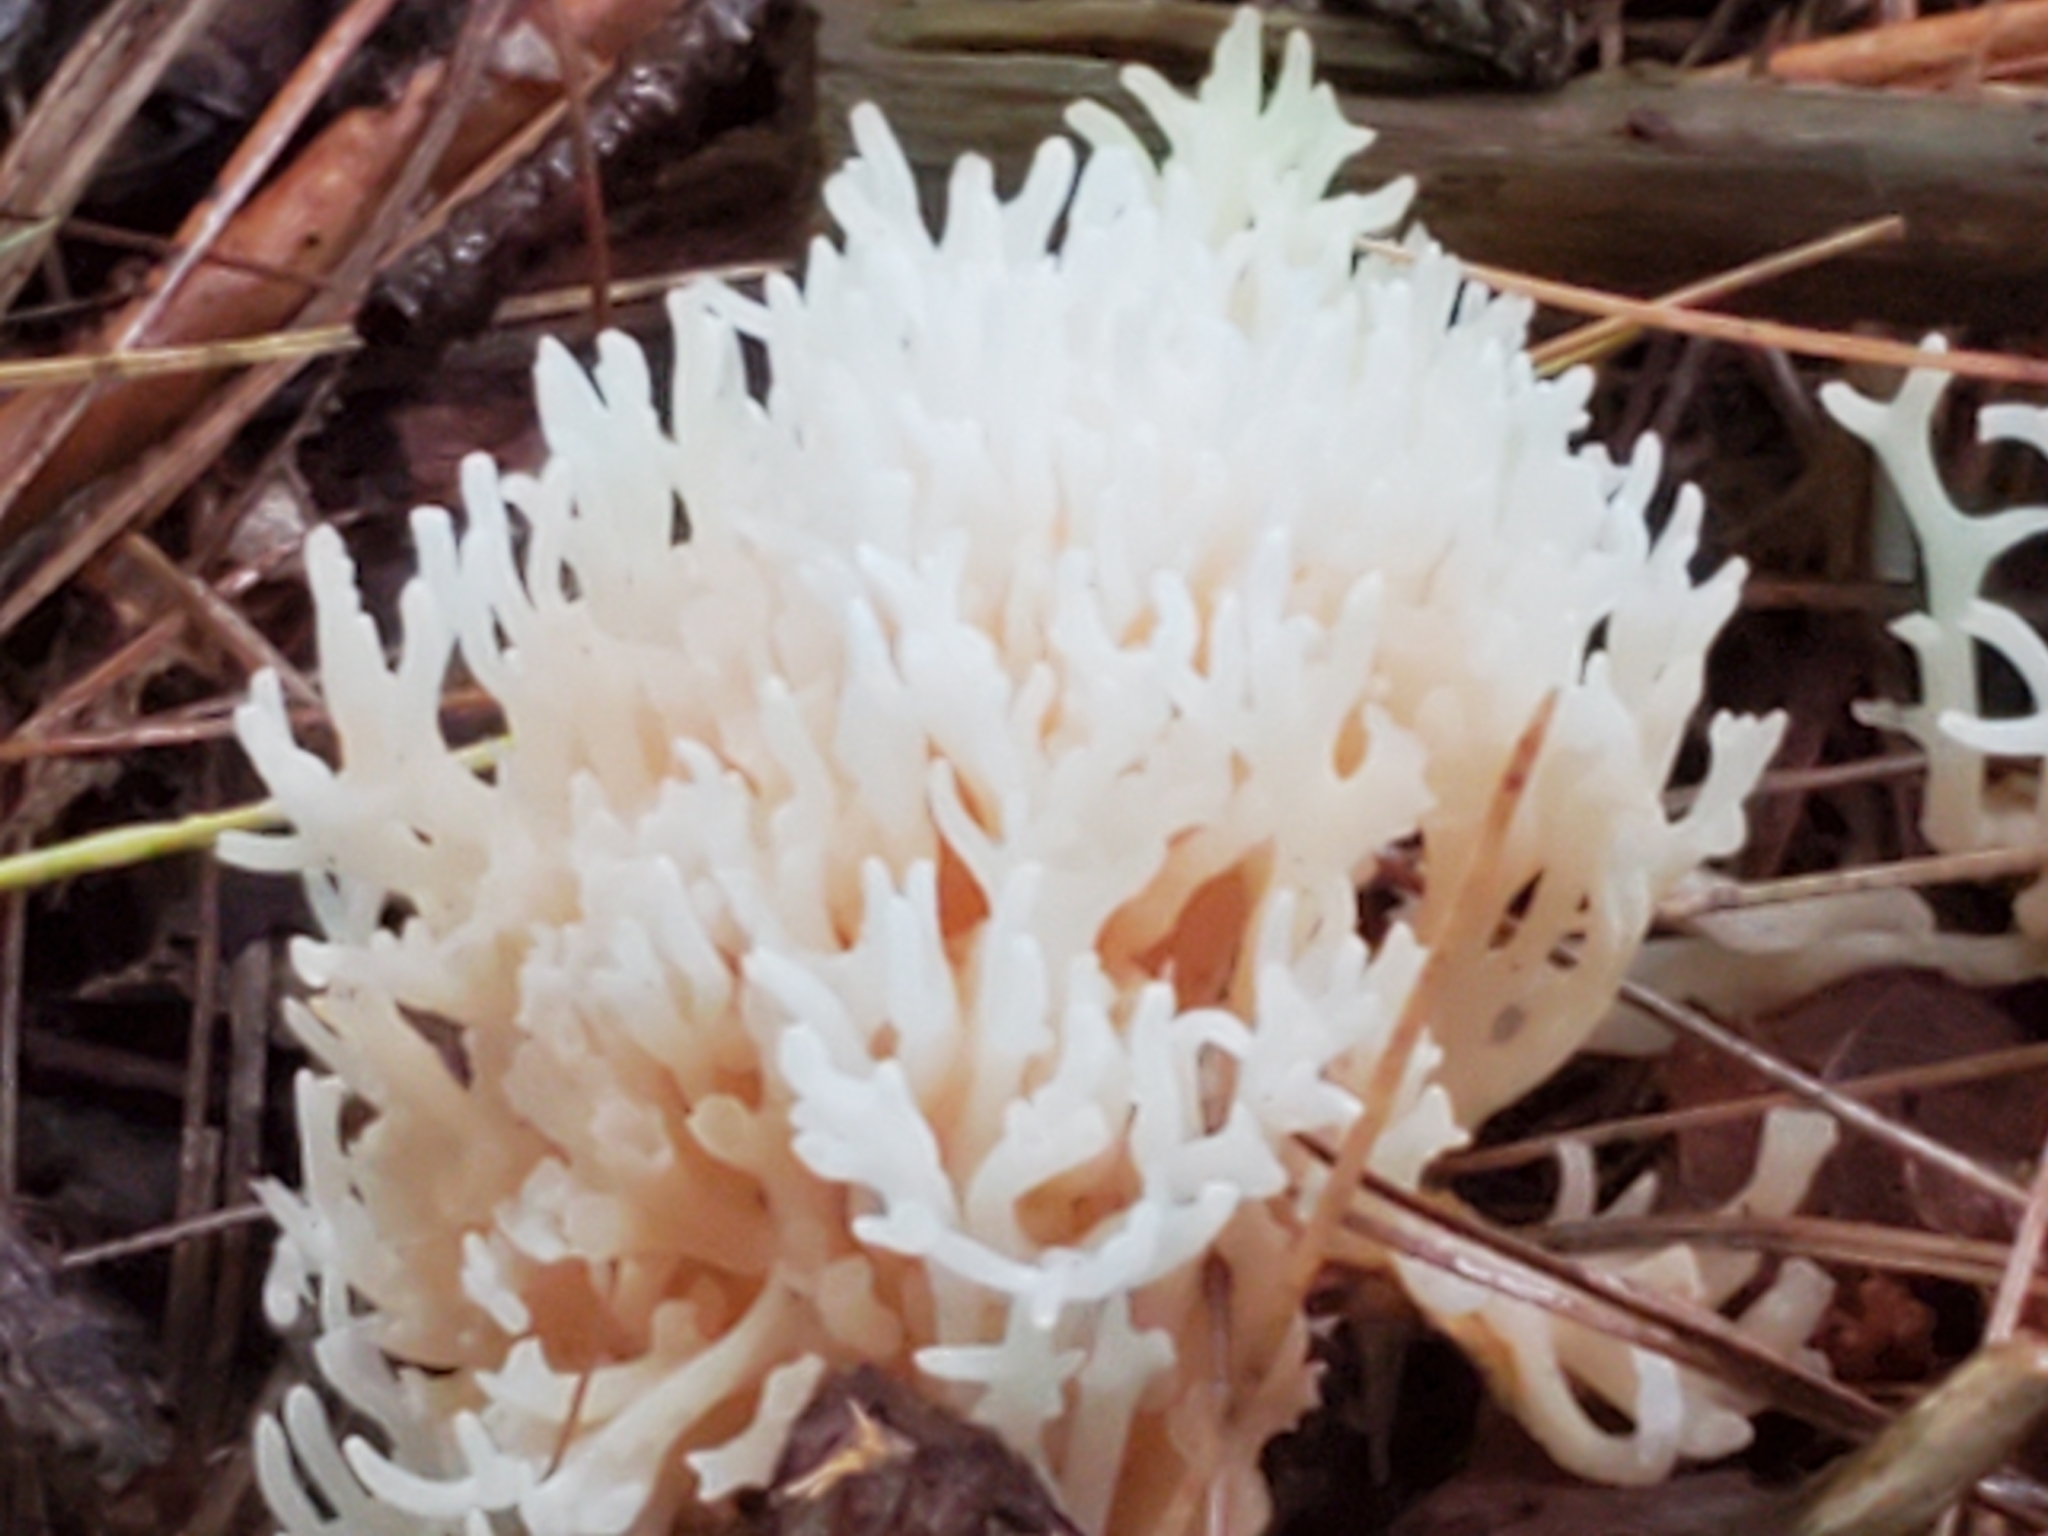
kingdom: Fungi
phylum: Basidiomycota
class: Agaricomycetes
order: Agaricales
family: Clavariaceae
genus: Ramariopsis
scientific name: Ramariopsis kunzei
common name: Ivory coral
